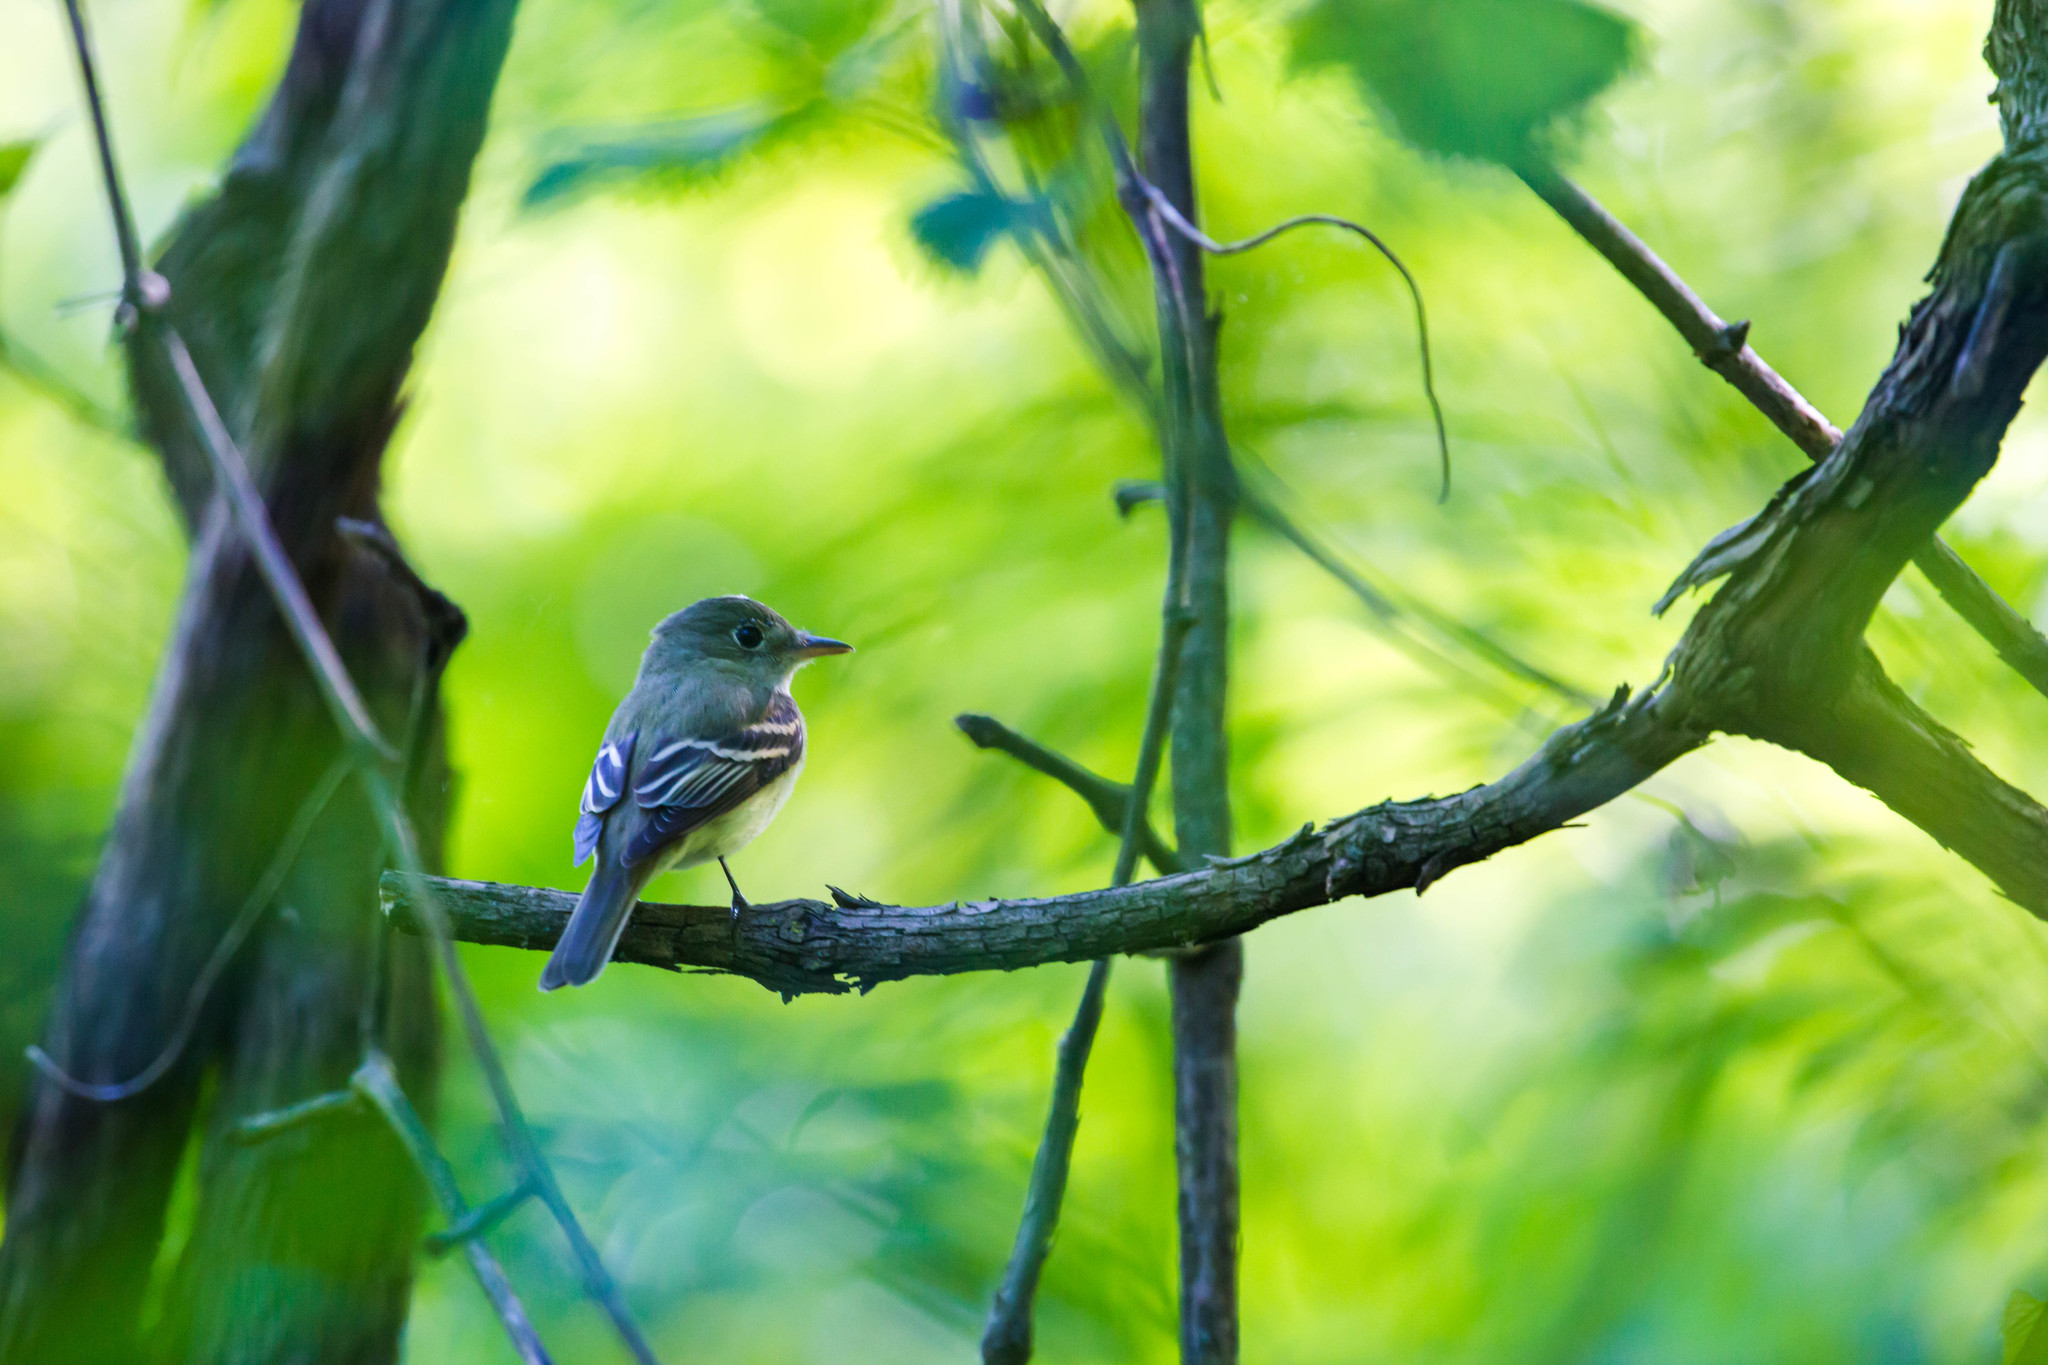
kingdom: Animalia
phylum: Chordata
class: Aves
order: Passeriformes
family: Tyrannidae
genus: Empidonax
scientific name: Empidonax virescens
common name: Acadian flycatcher
